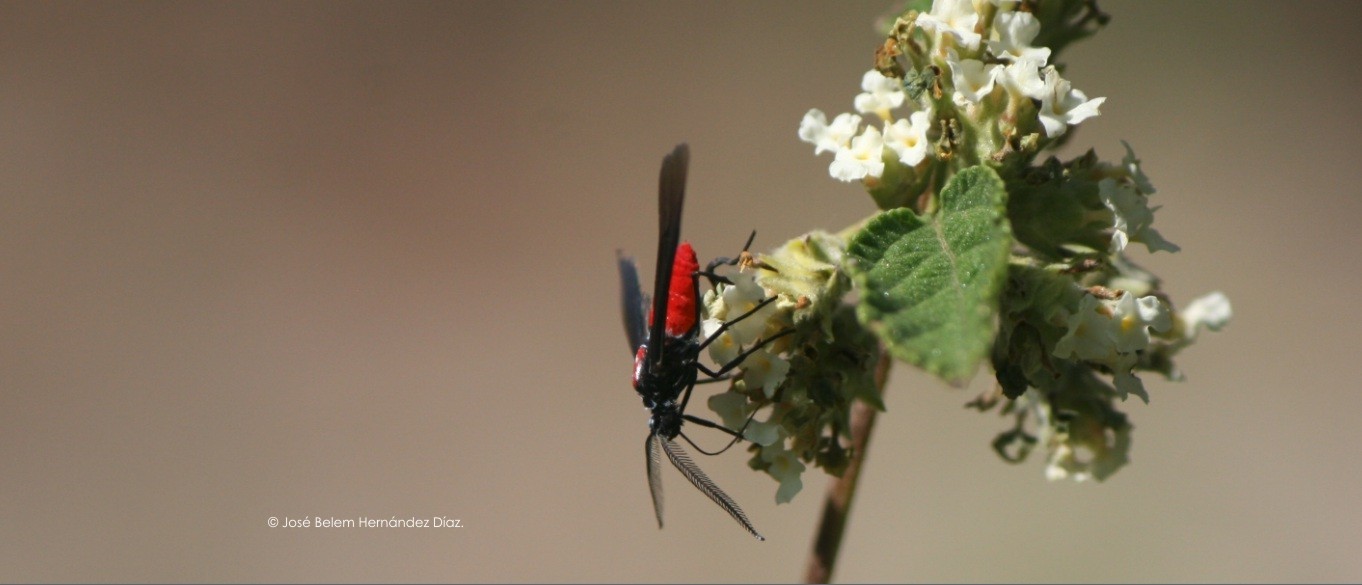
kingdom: Animalia
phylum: Arthropoda
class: Insecta
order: Lepidoptera
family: Erebidae
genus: Saurita
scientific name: Saurita mecrida
